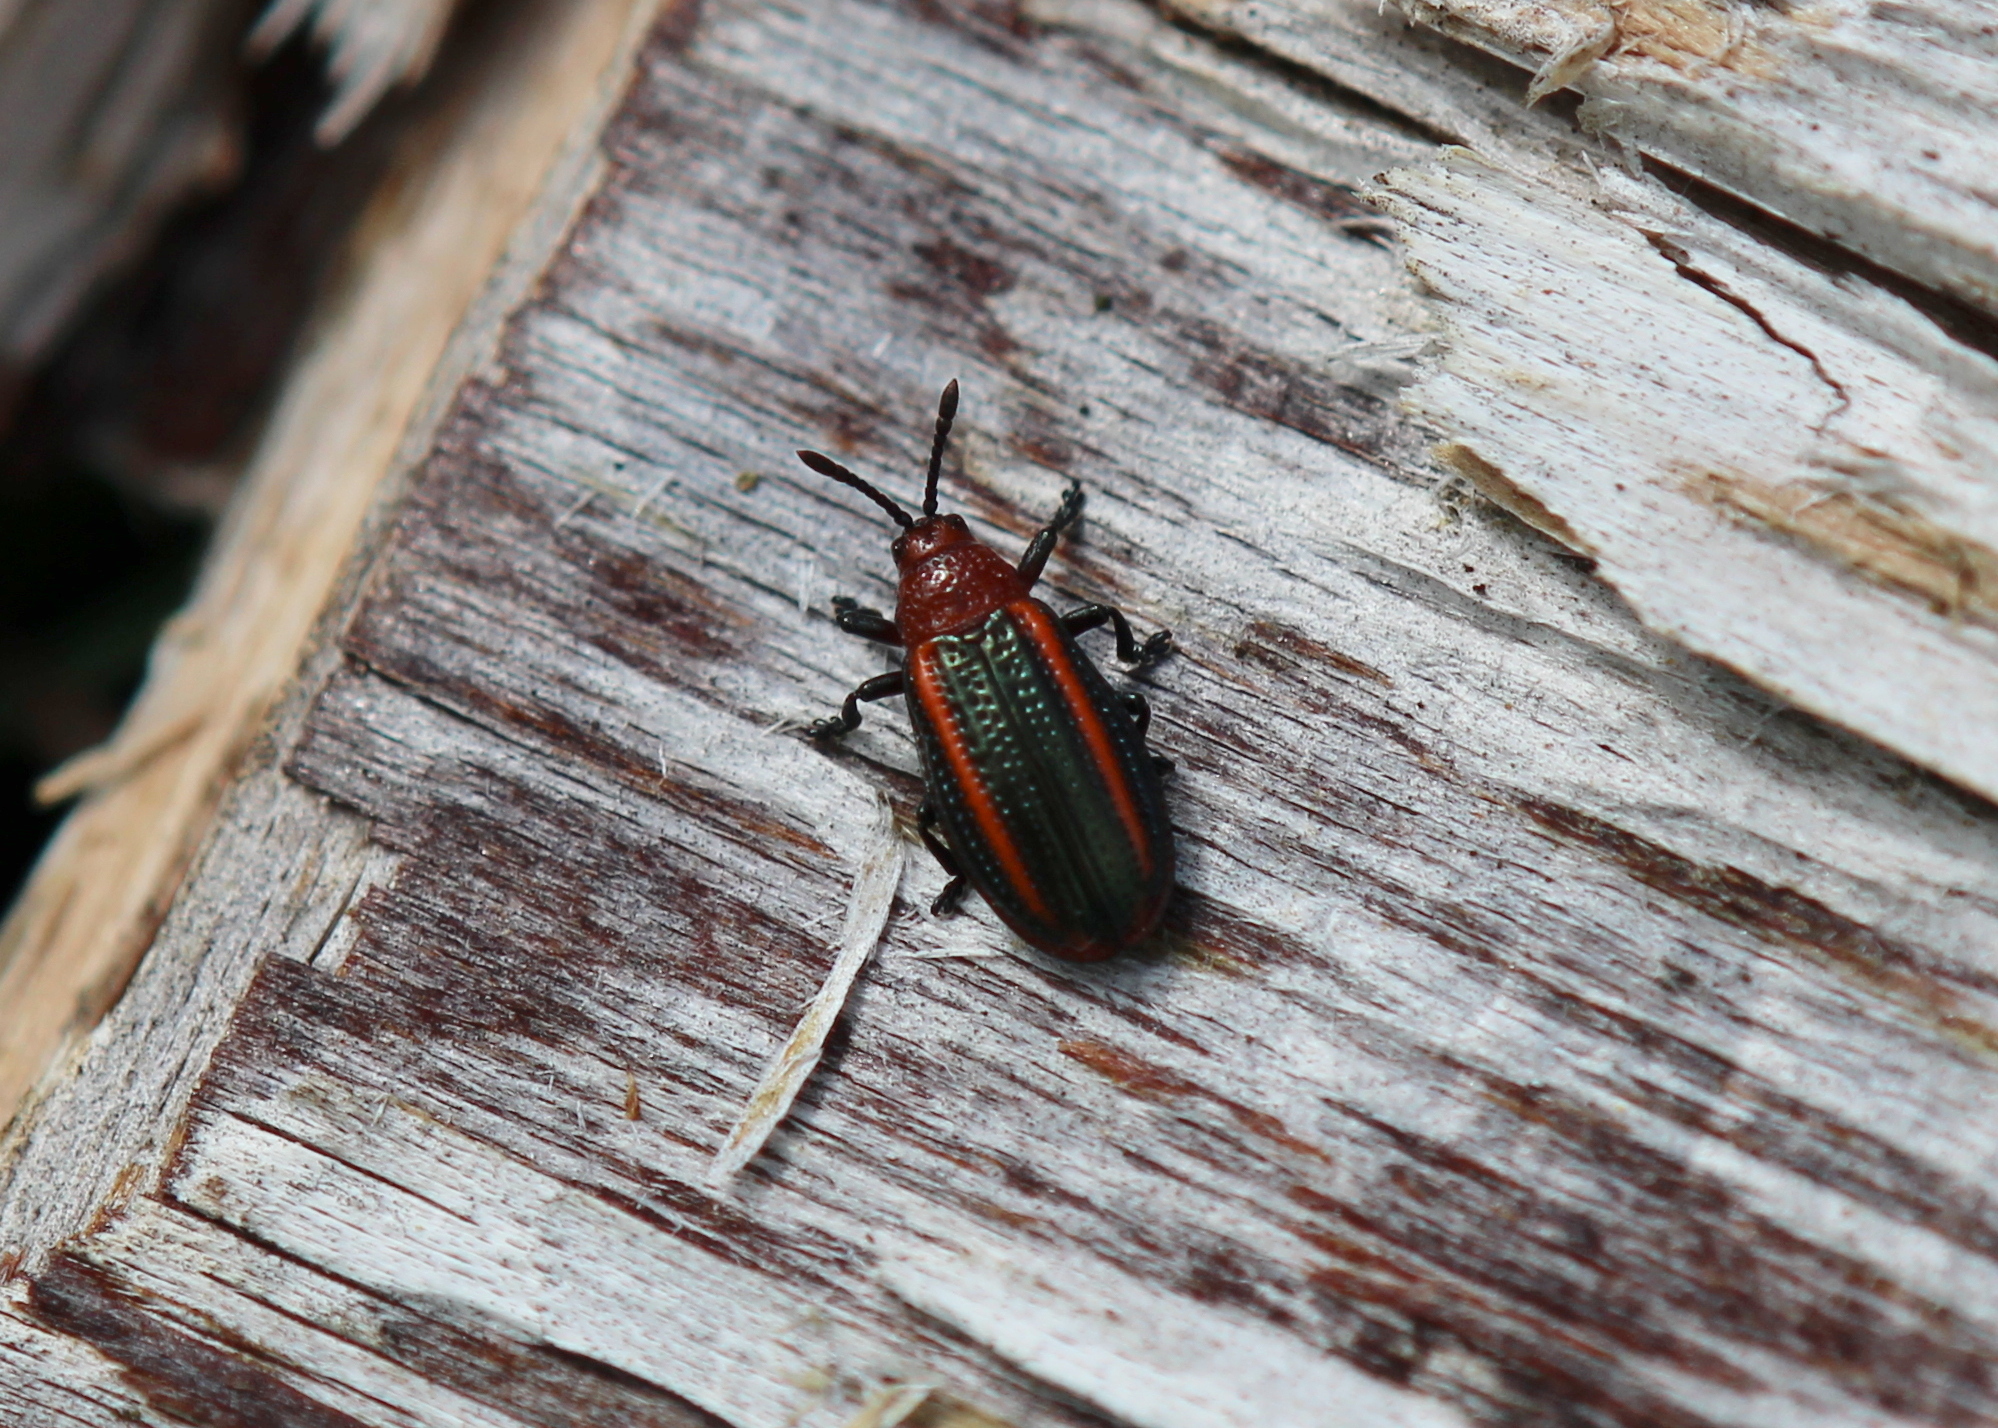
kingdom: Animalia
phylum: Arthropoda
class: Insecta
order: Coleoptera
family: Chrysomelidae
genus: Microrhopala
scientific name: Microrhopala vittata
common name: Goldenrod leaf miner beetle
